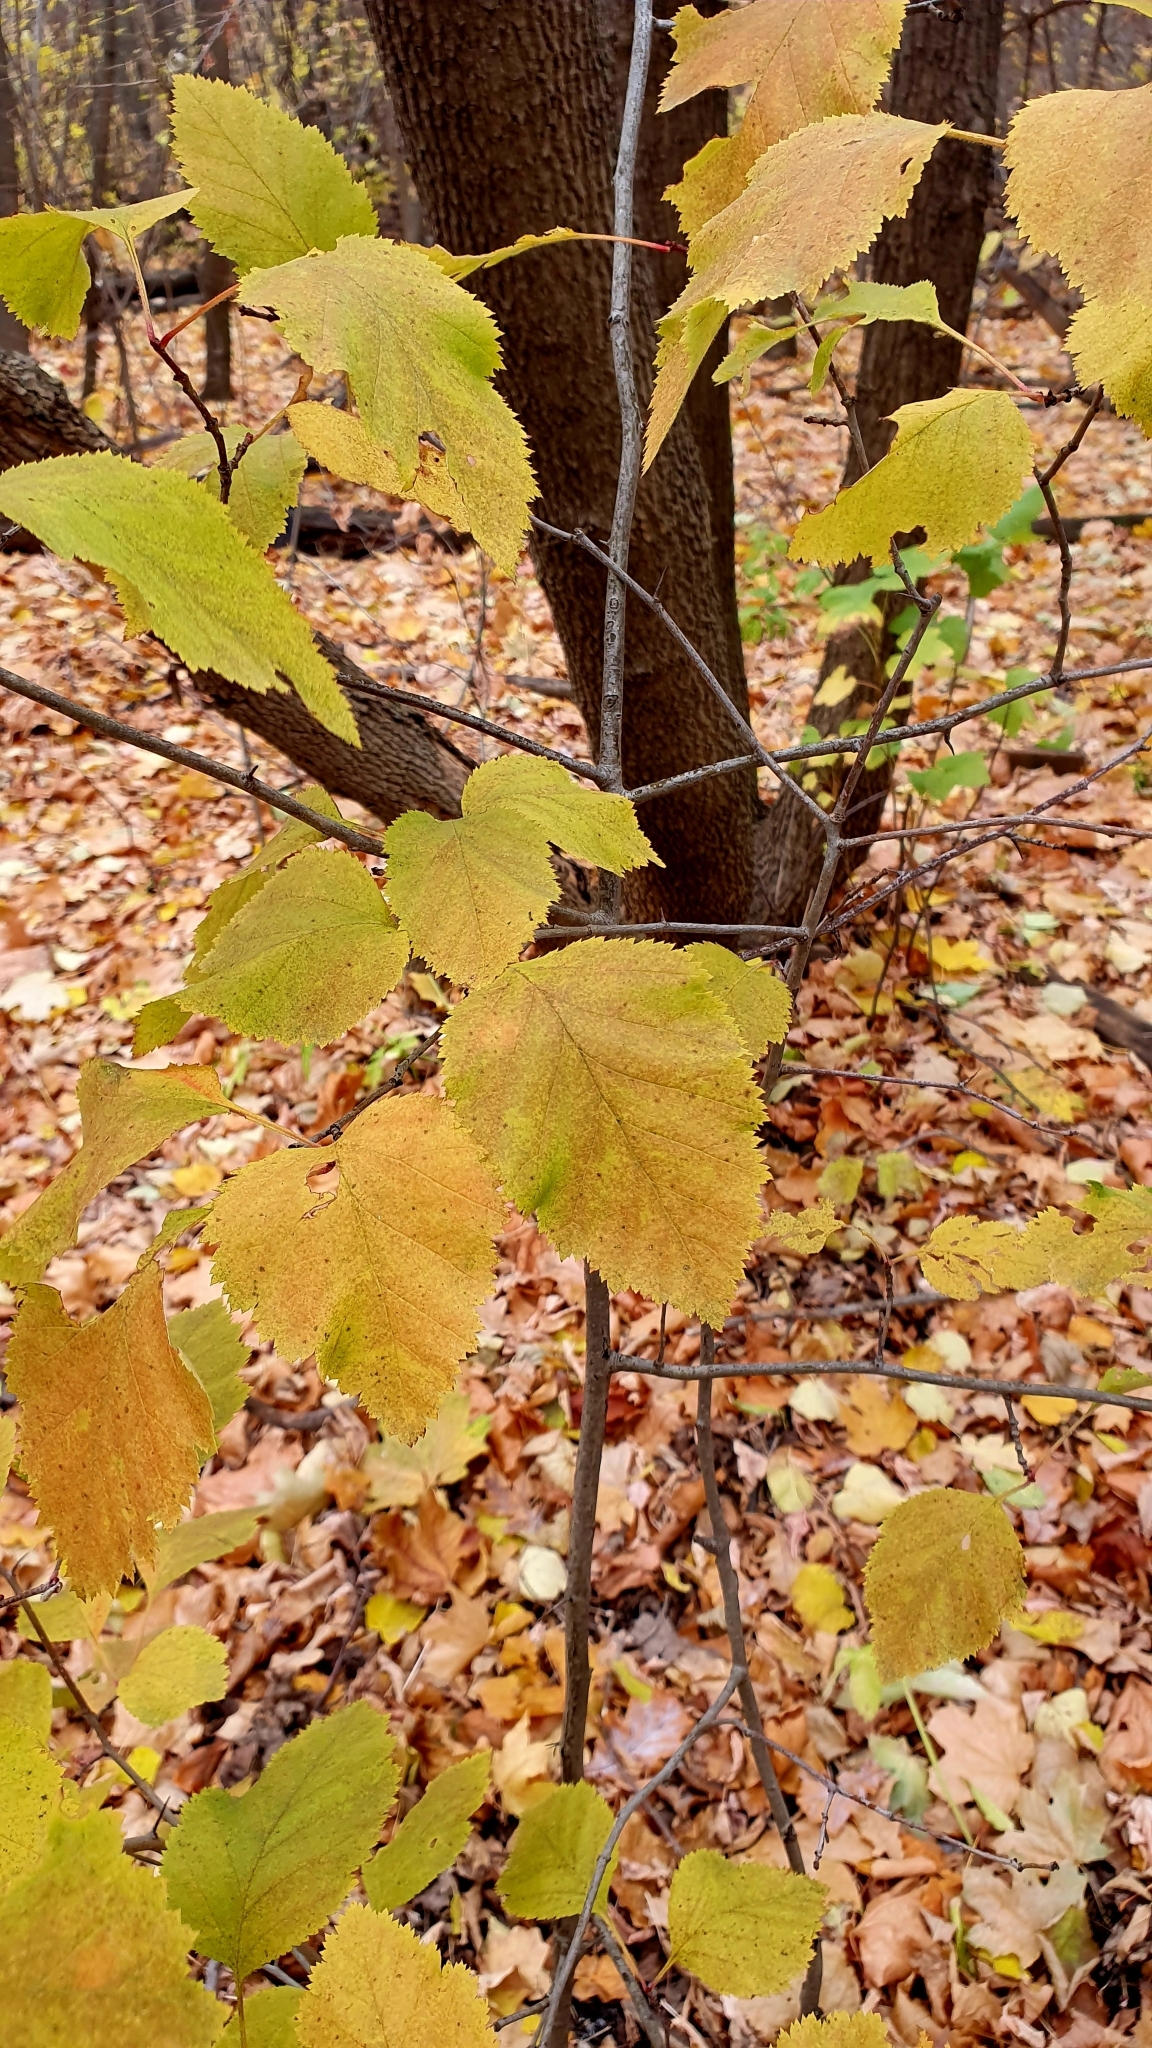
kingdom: Plantae
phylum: Tracheophyta
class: Magnoliopsida
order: Sapindales
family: Sapindaceae
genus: Acer
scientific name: Acer tataricum
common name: Tartar maple
